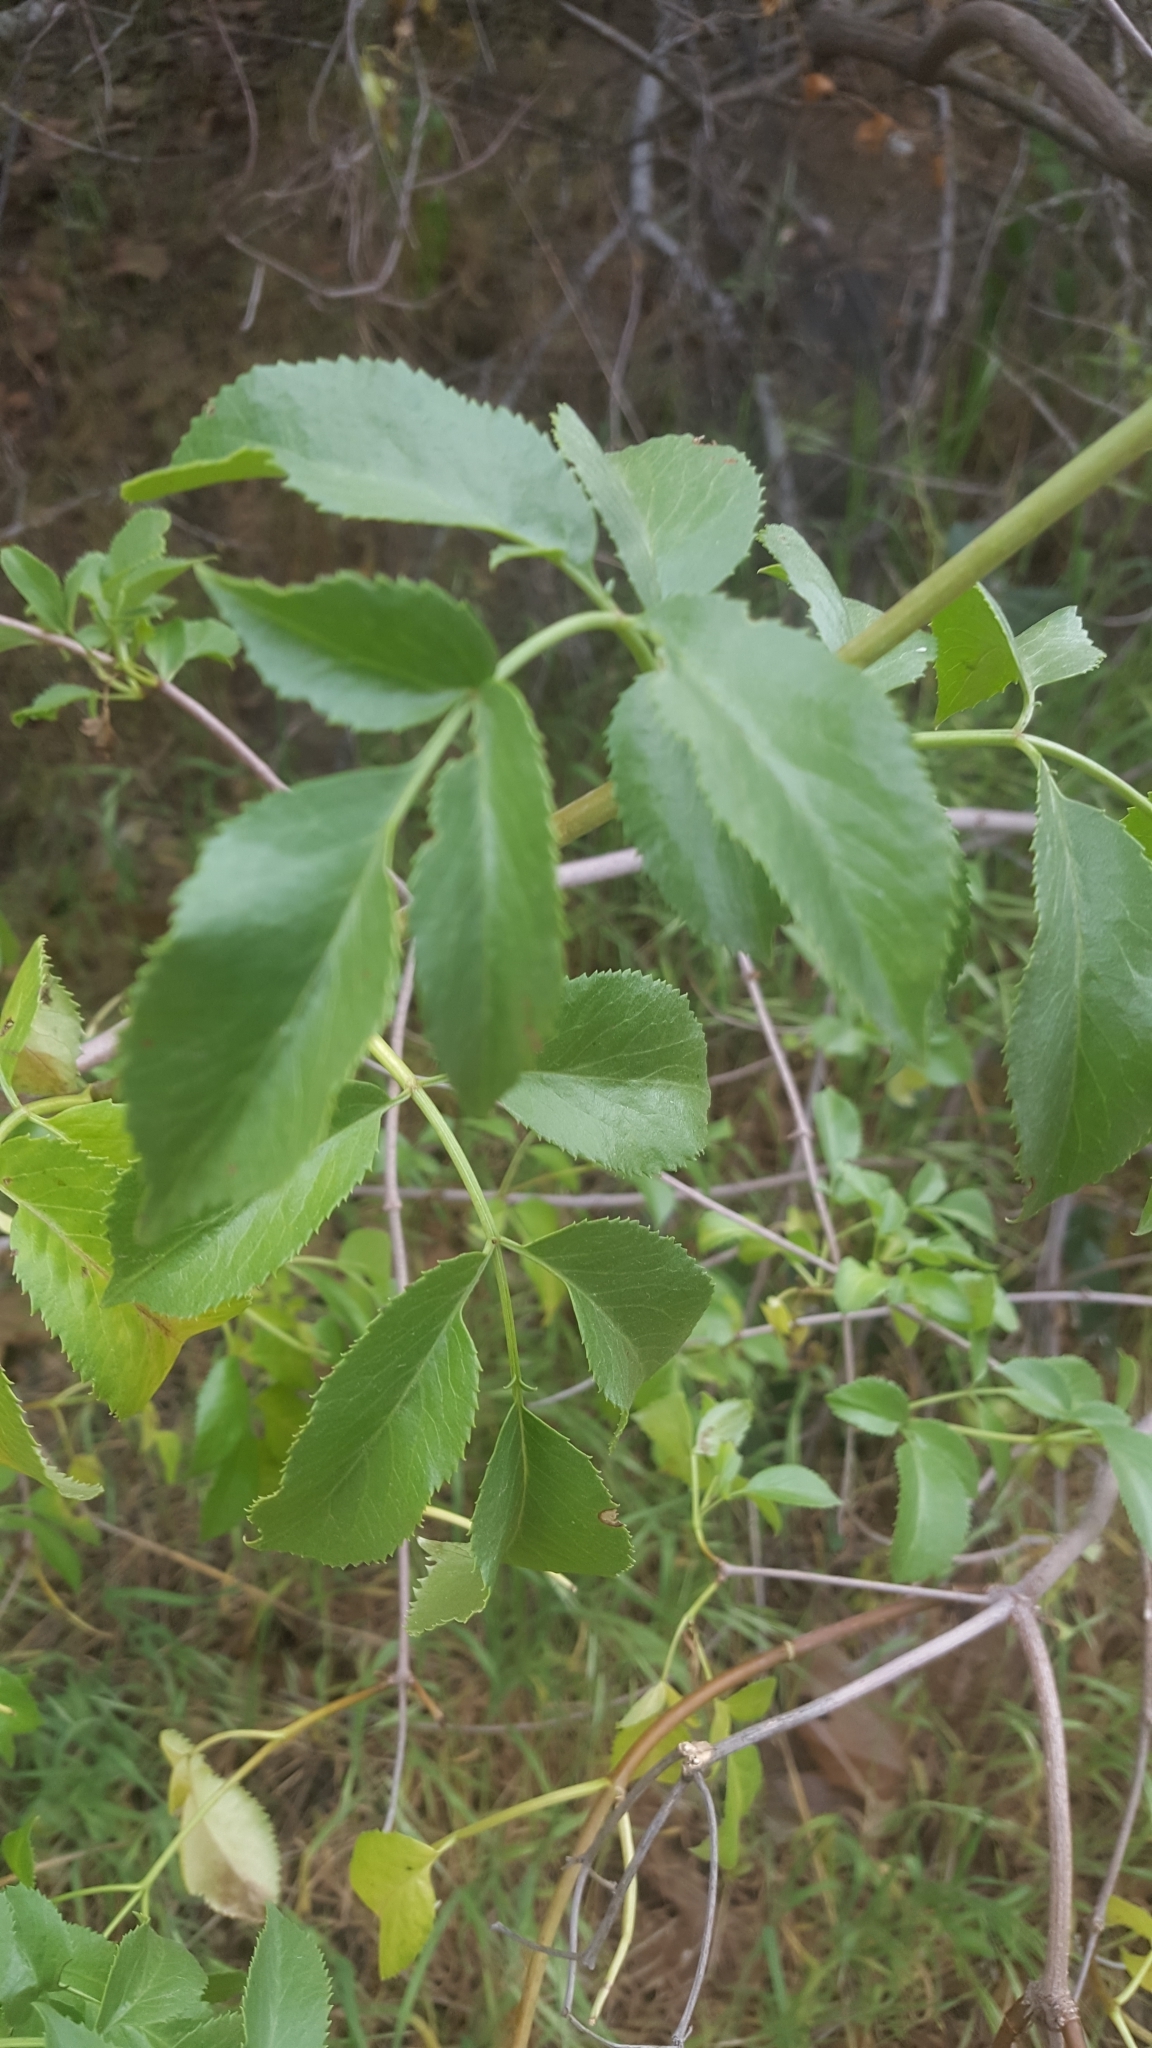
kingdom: Plantae
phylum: Tracheophyta
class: Magnoliopsida
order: Dipsacales
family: Viburnaceae
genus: Sambucus
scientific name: Sambucus cerulea
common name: Blue elder
